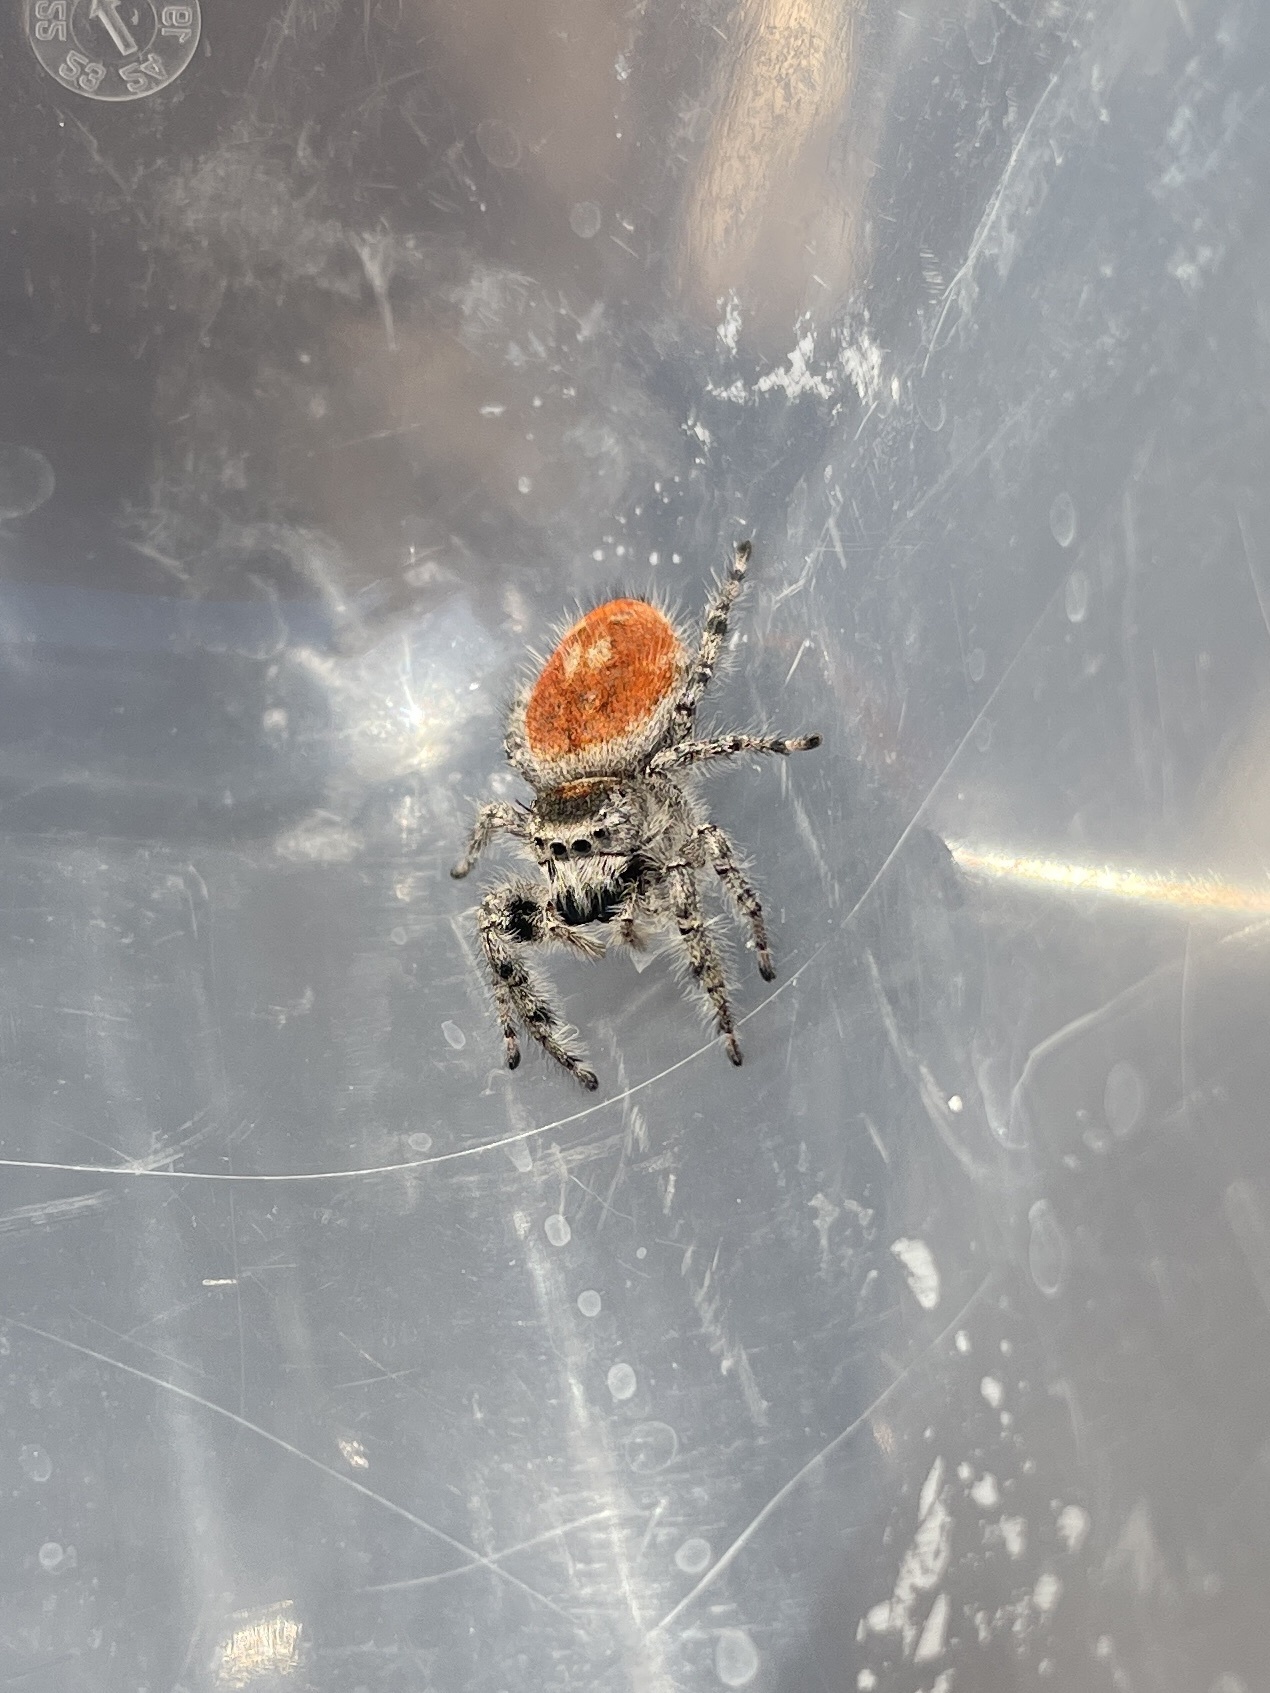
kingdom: Animalia
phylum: Arthropoda
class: Arachnida
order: Araneae
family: Salticidae
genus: Phidippus
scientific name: Phidippus adumbratus
